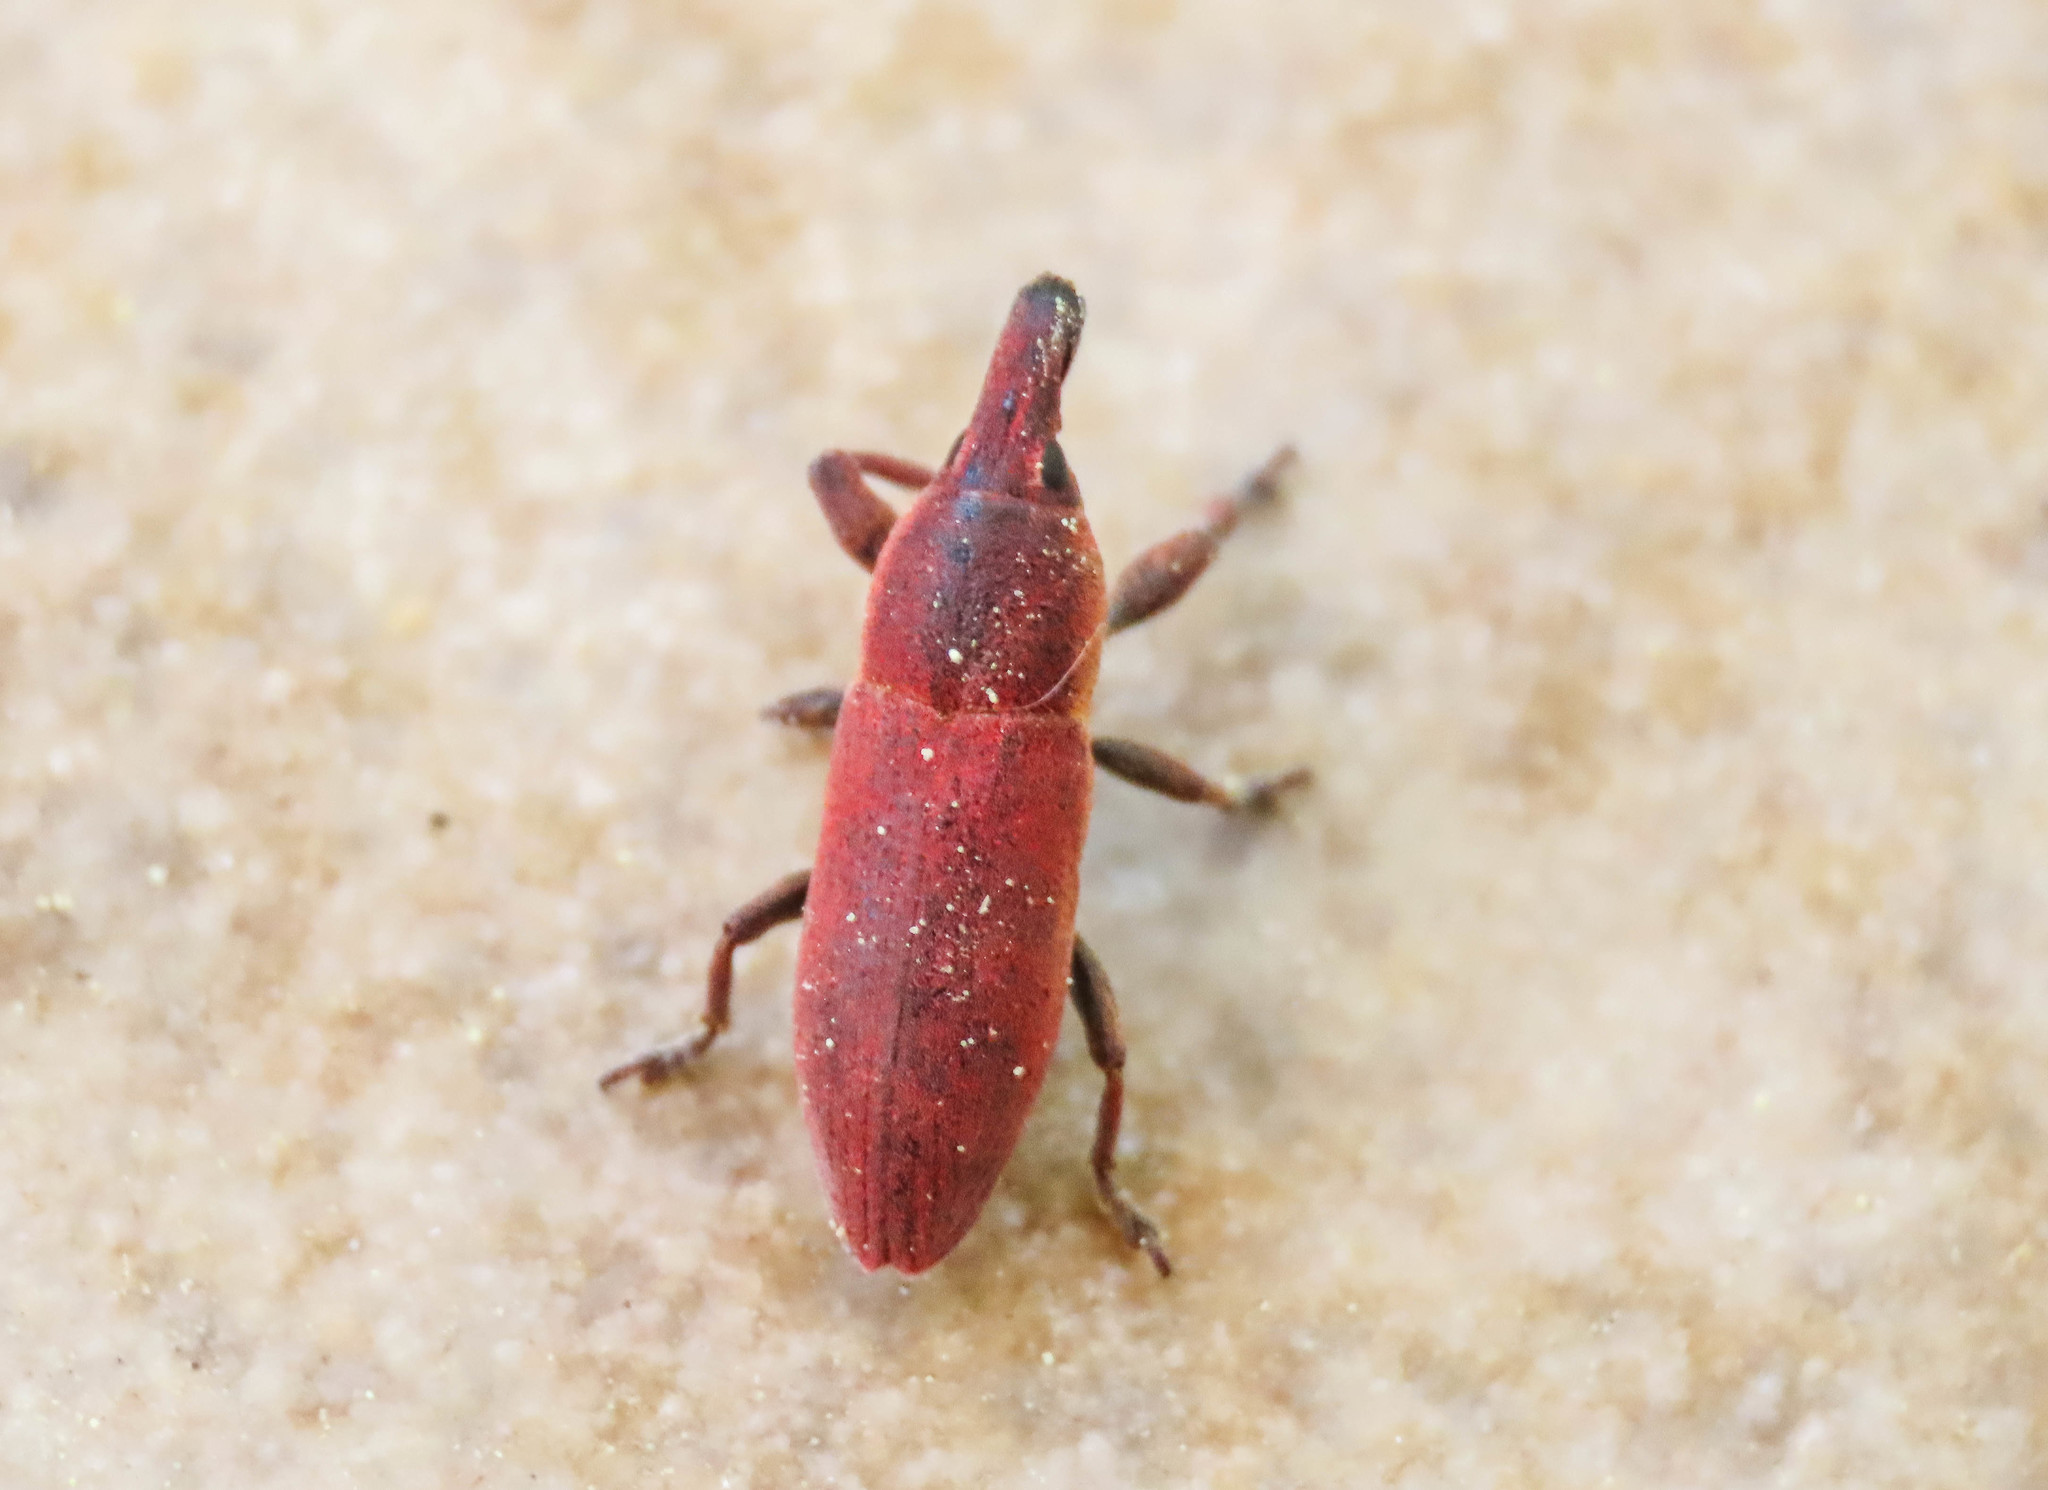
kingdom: Animalia
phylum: Arthropoda
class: Insecta
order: Coleoptera
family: Curculionidae
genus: Lixus
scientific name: Lixus angustus
